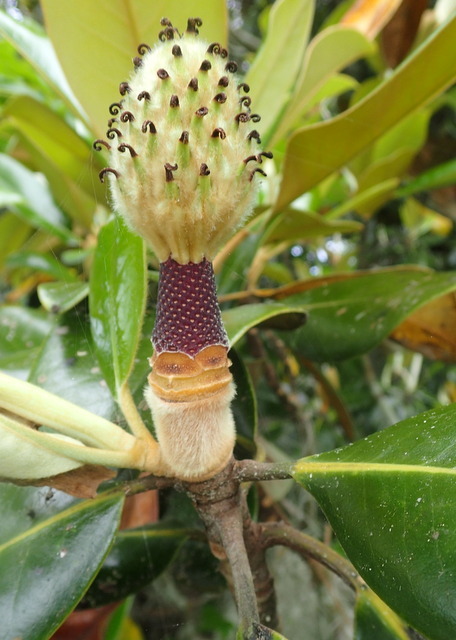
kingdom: Plantae
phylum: Tracheophyta
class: Magnoliopsida
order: Magnoliales
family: Magnoliaceae
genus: Magnolia
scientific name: Magnolia grandiflora
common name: Southern magnolia
